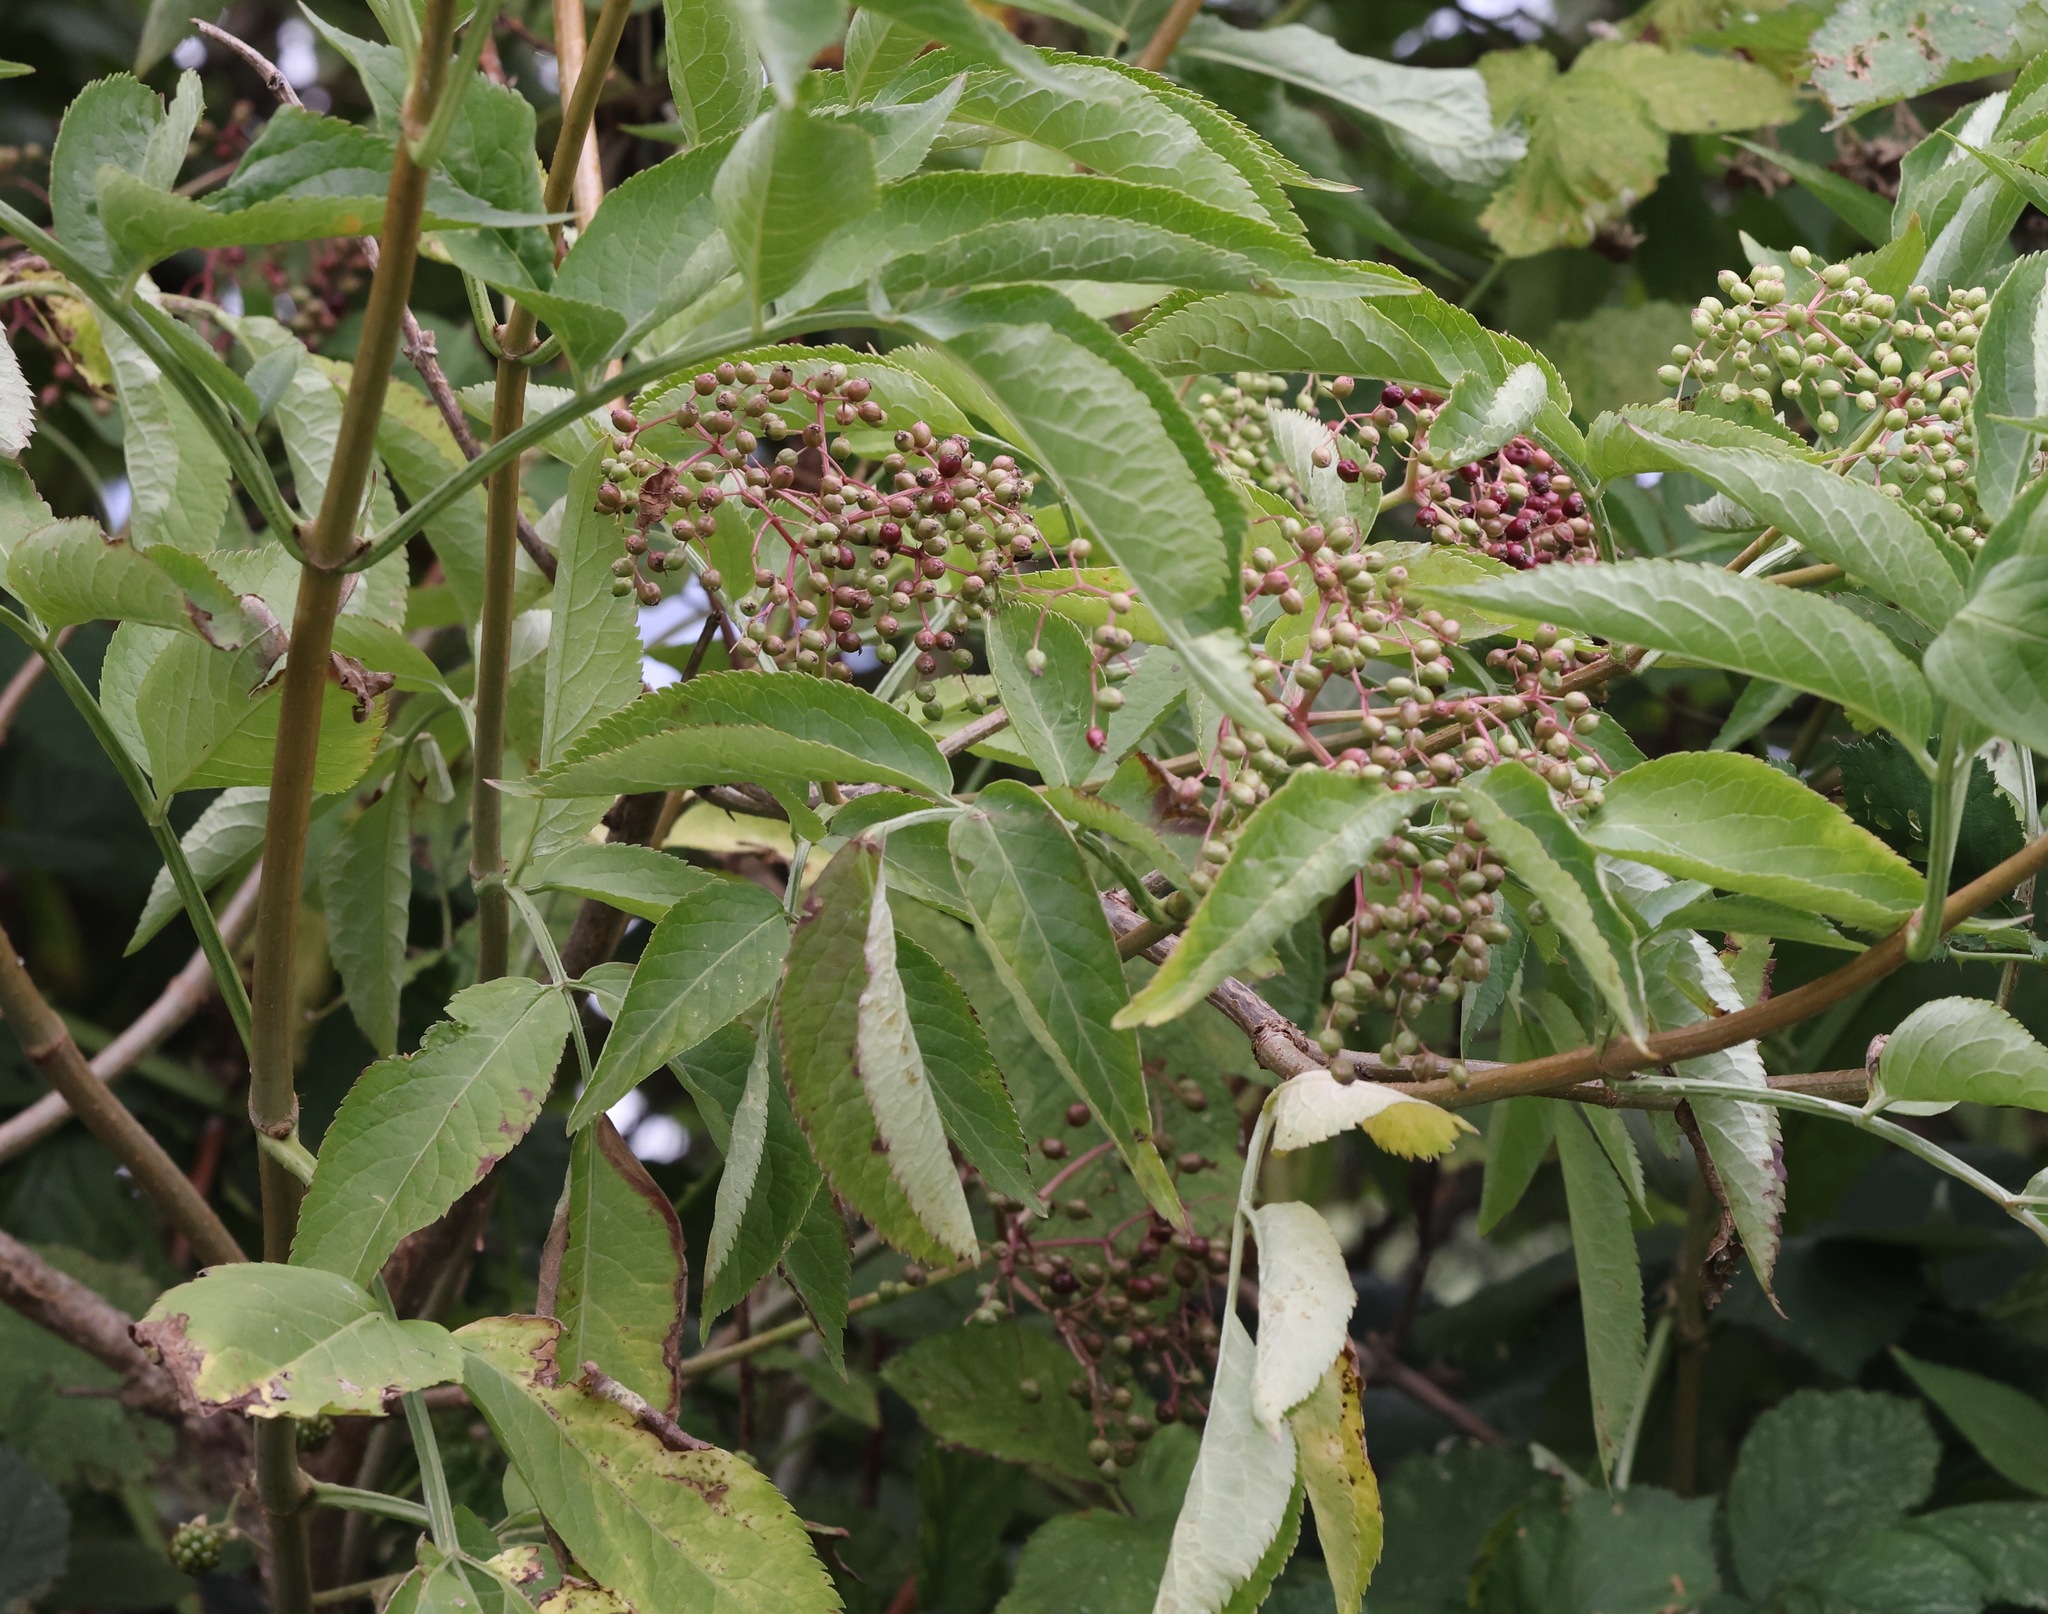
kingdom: Plantae
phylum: Tracheophyta
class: Magnoliopsida
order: Dipsacales
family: Viburnaceae
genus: Sambucus
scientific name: Sambucus nigra
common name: Elder
